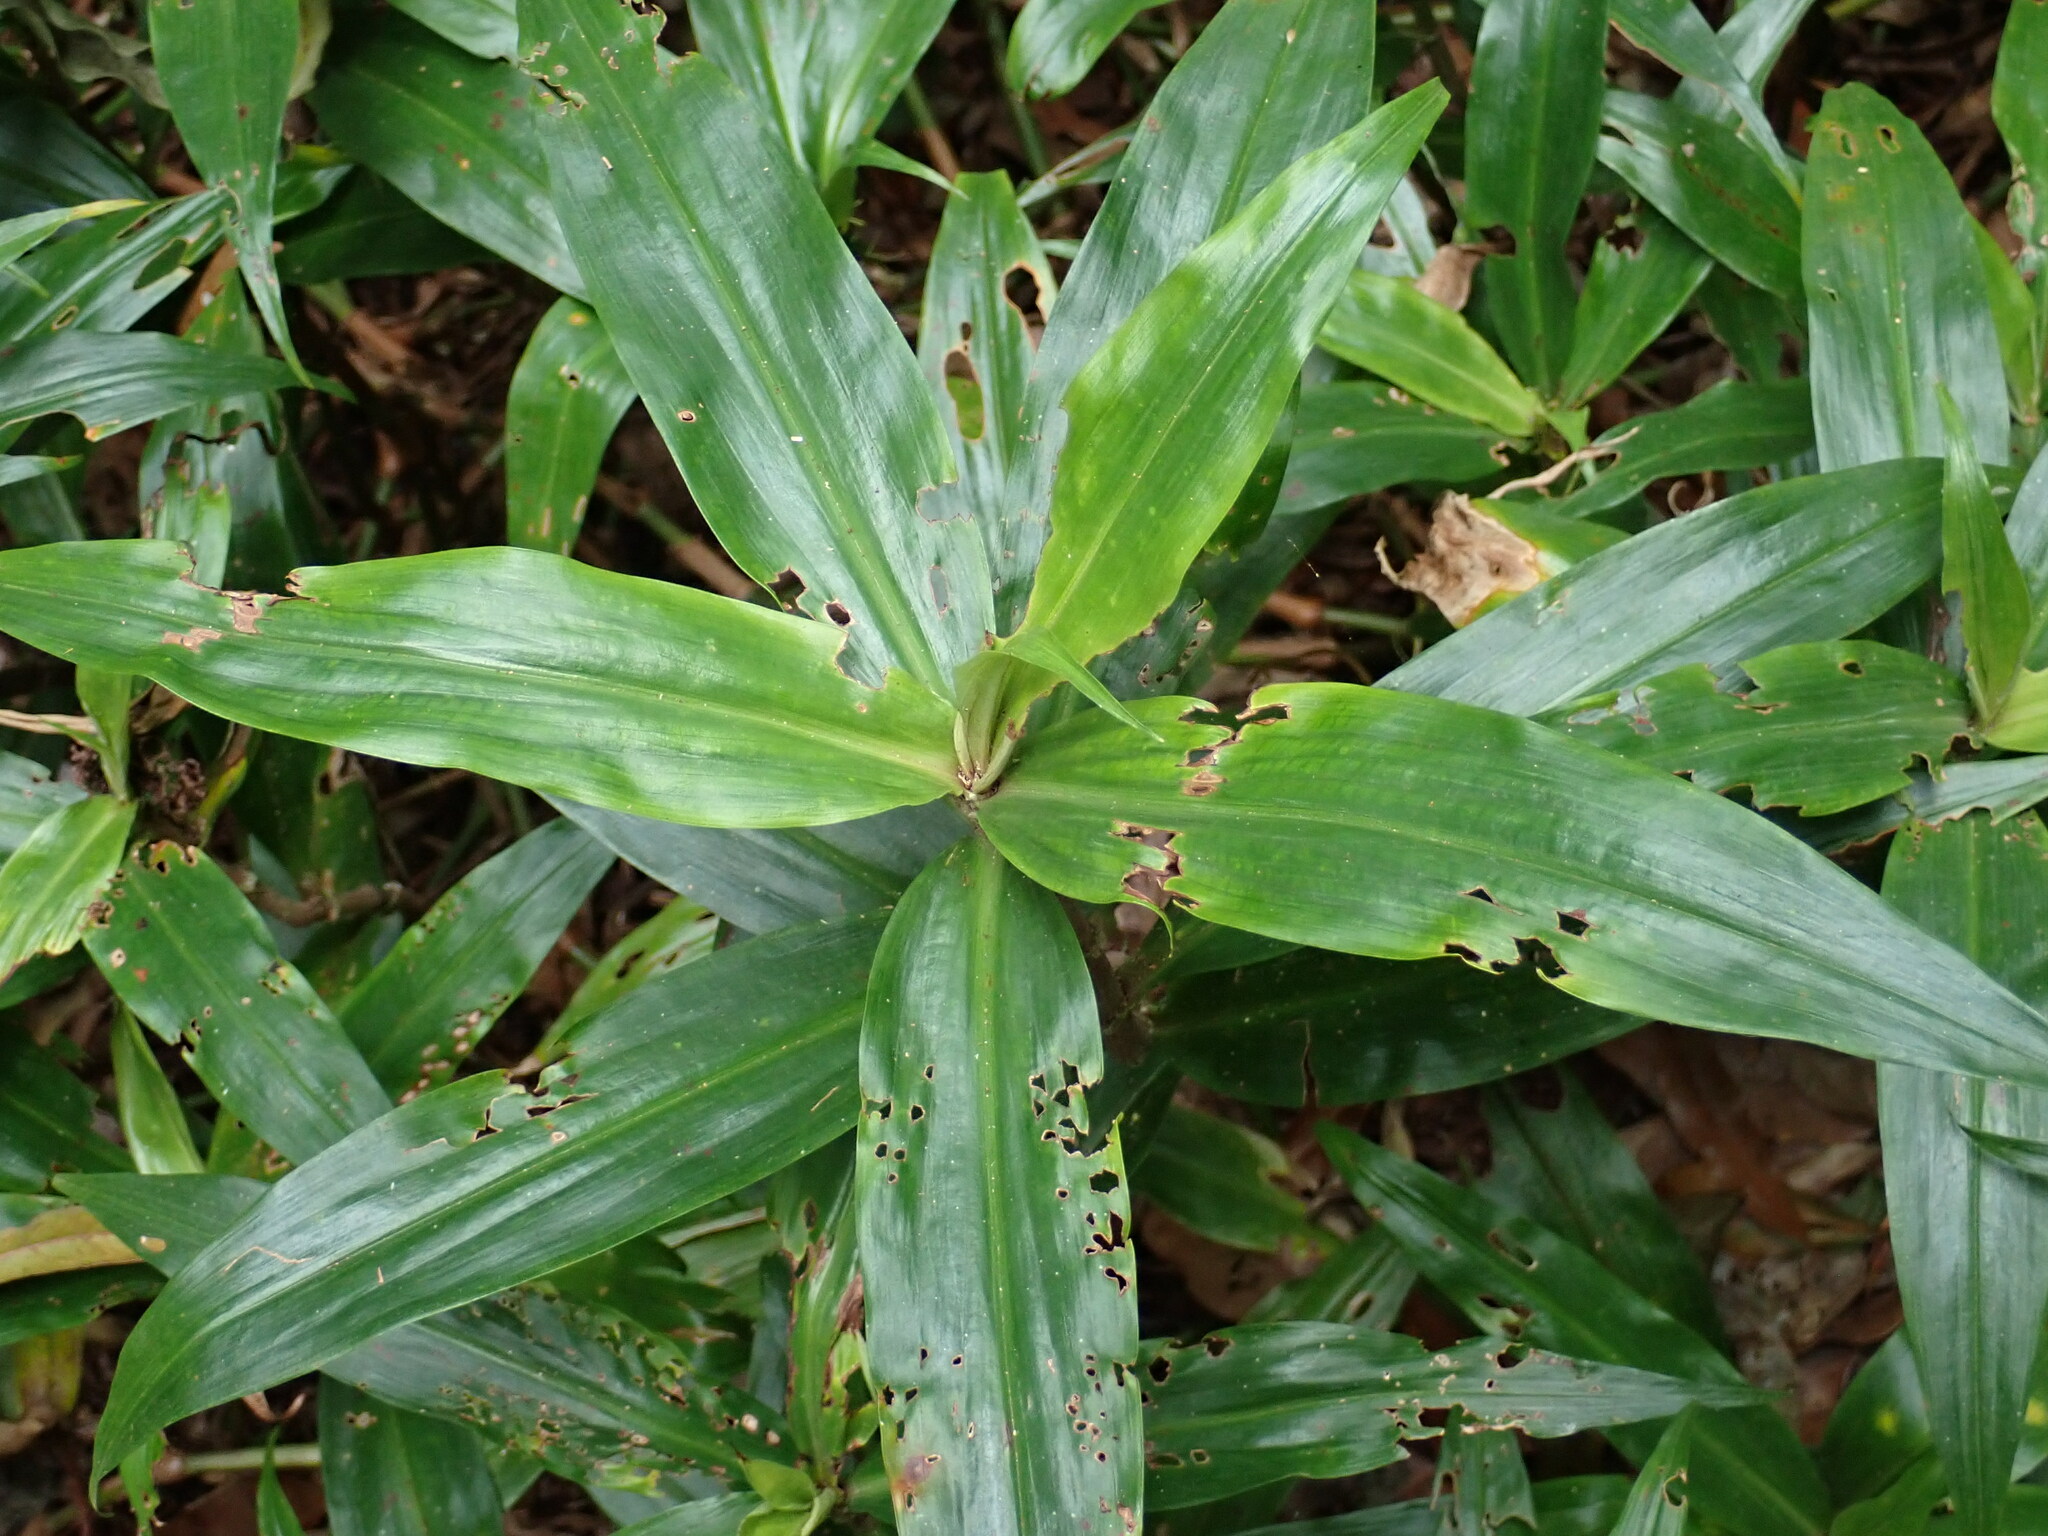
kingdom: Plantae
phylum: Tracheophyta
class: Liliopsida
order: Commelinales
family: Commelinaceae
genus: Pollia
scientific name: Pollia crispata
